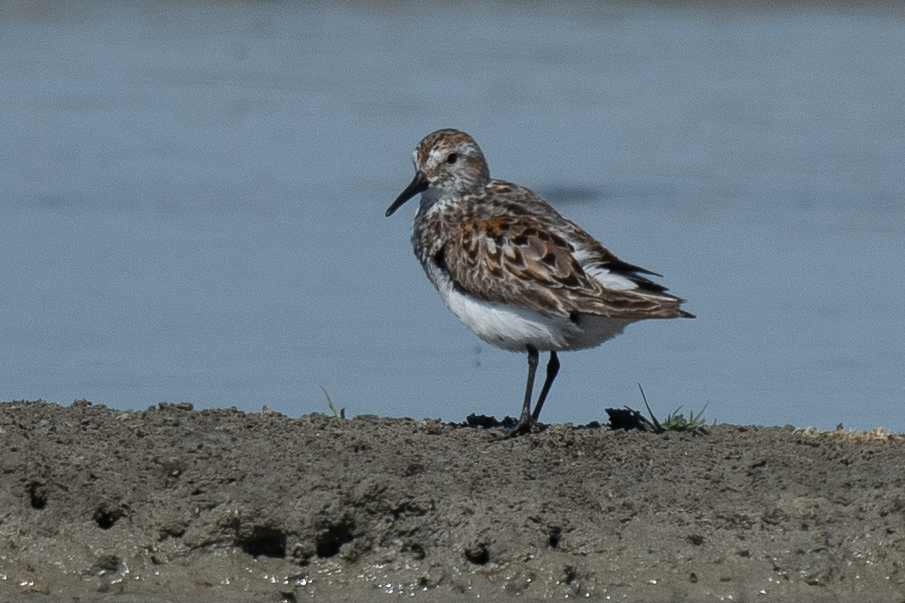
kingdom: Animalia
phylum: Chordata
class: Aves
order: Charadriiformes
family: Scolopacidae
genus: Calidris
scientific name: Calidris mauri
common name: Western sandpiper
